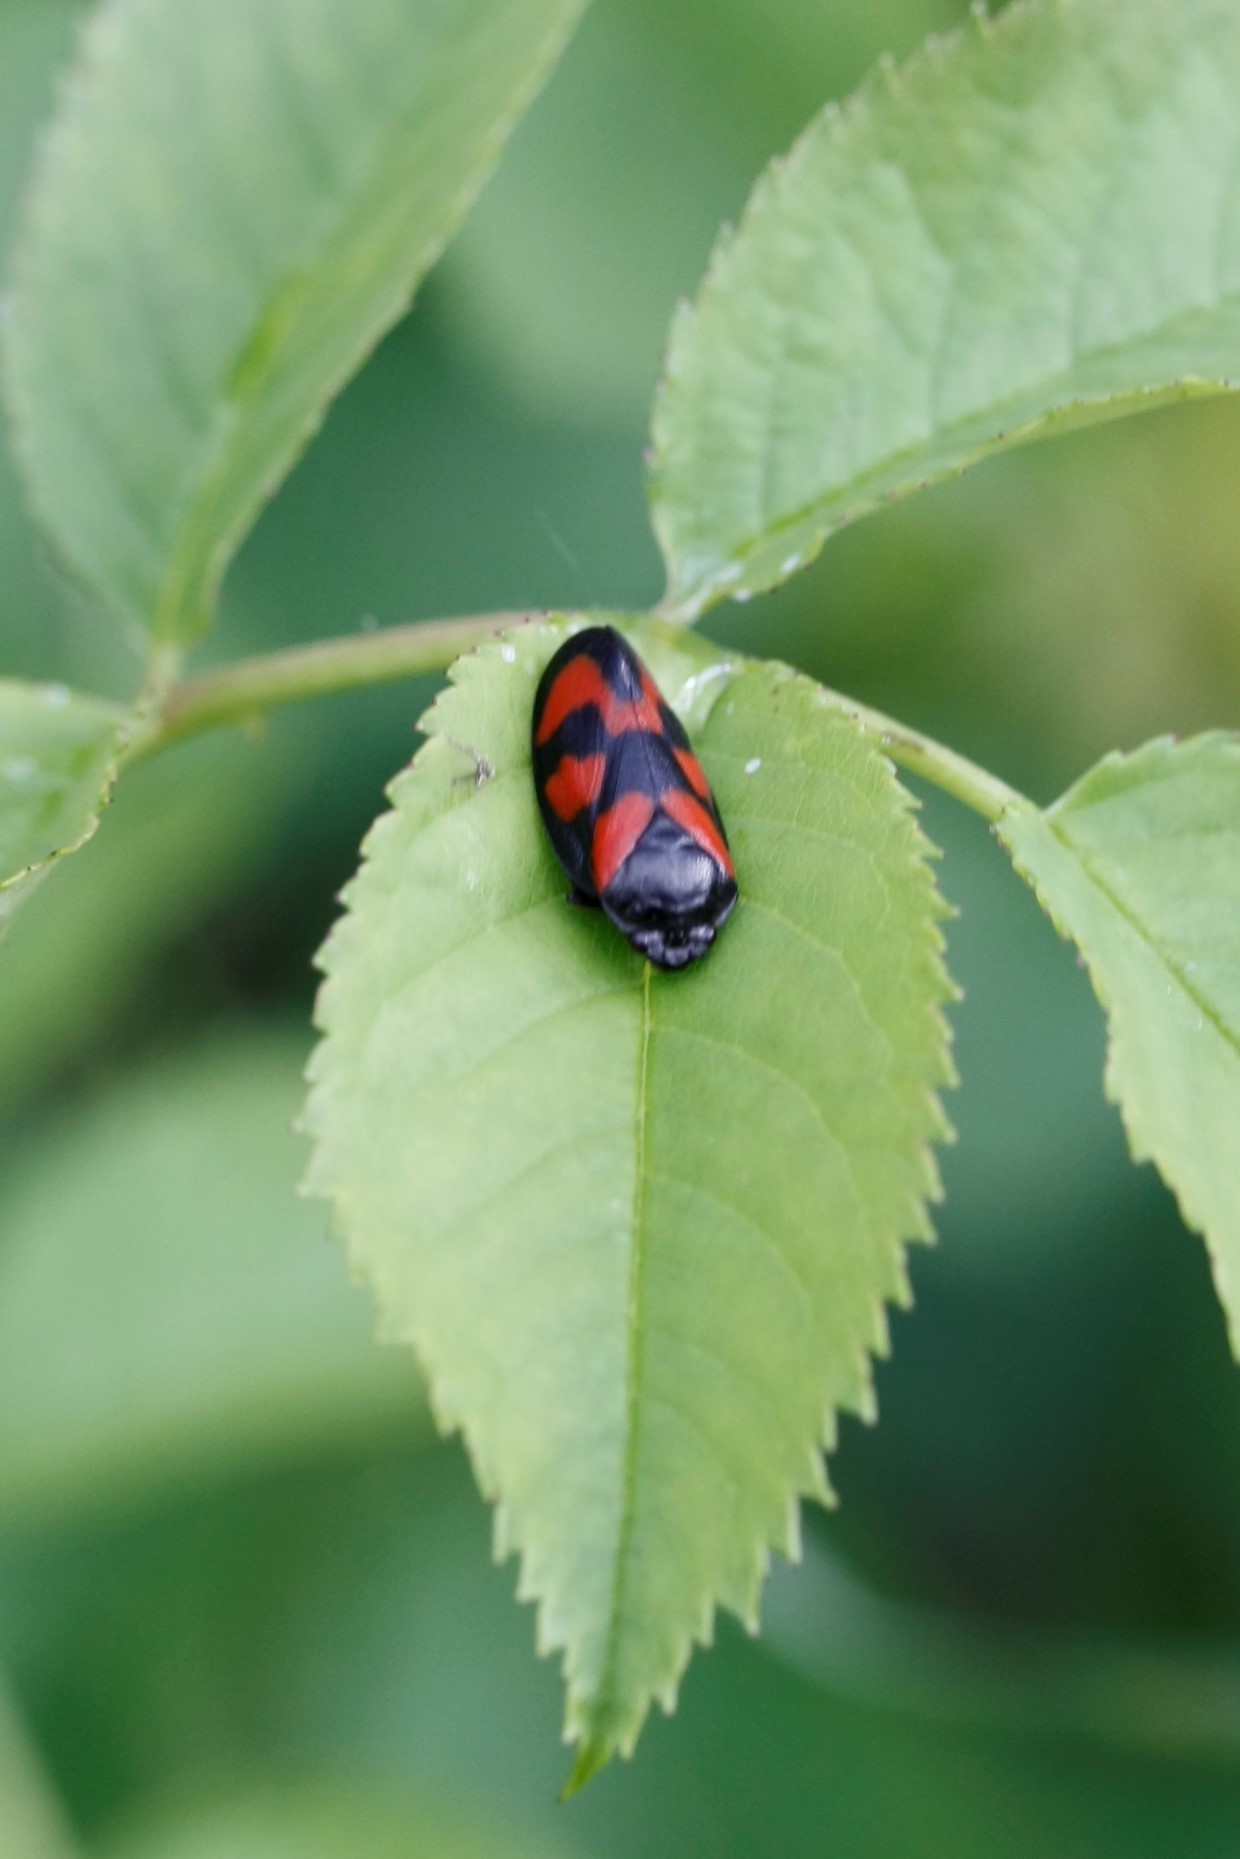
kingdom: Animalia
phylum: Arthropoda
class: Insecta
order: Hemiptera
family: Cercopidae
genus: Cercopis
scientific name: Cercopis vulnerata
